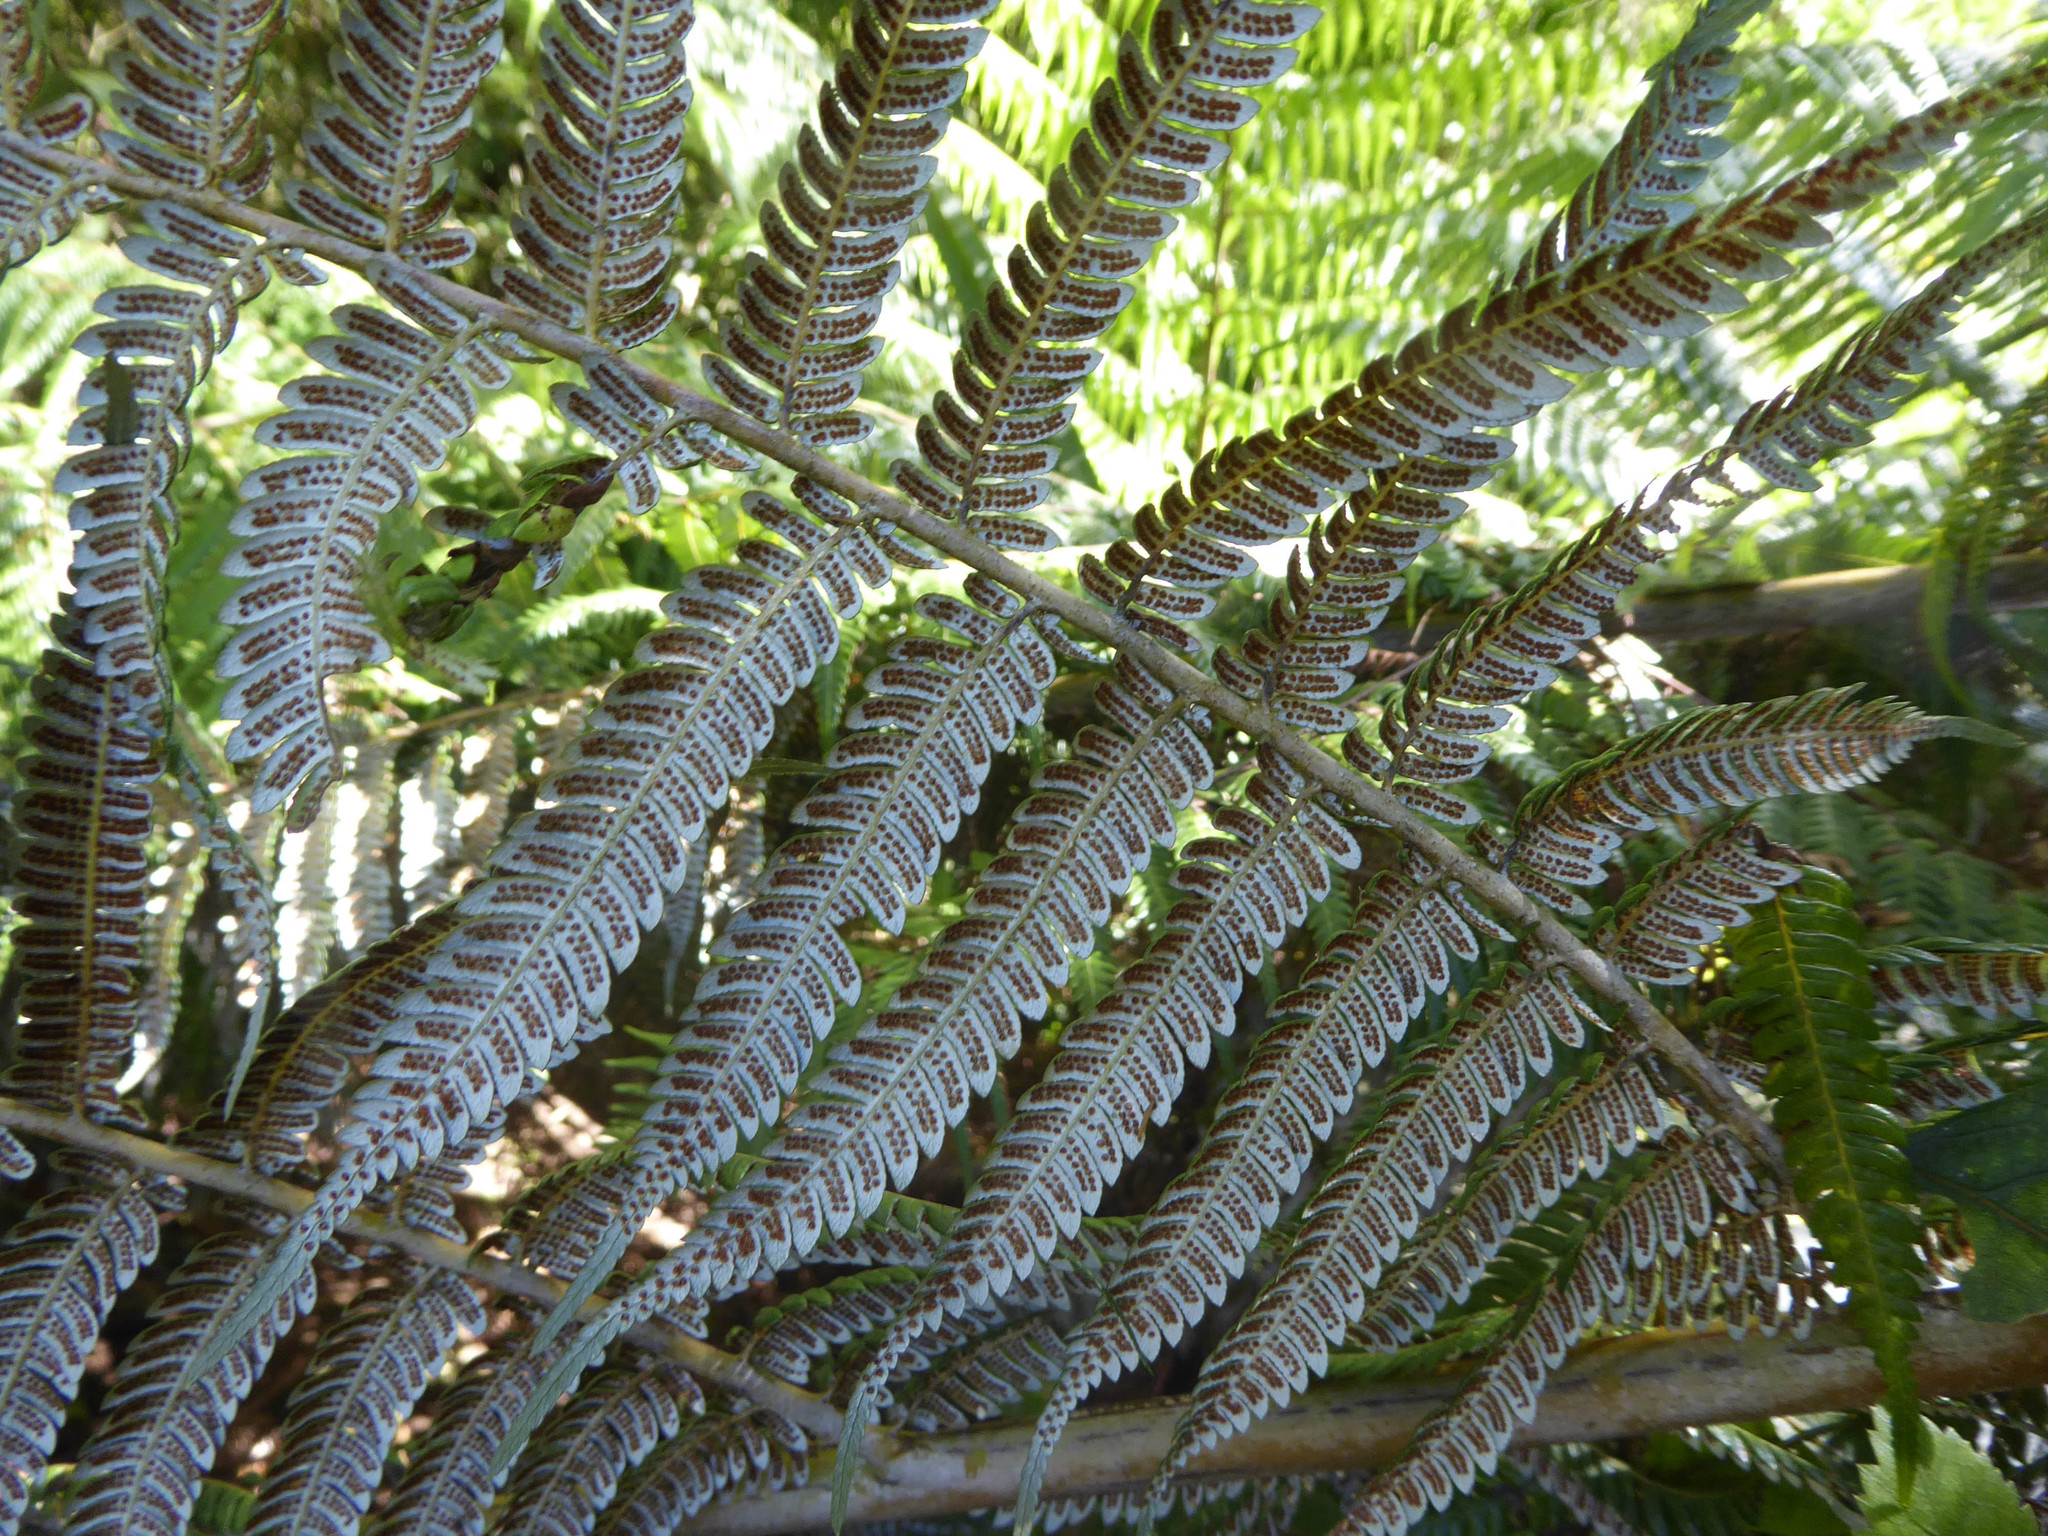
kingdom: Plantae
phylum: Tracheophyta
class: Polypodiopsida
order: Cyatheales
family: Cyatheaceae
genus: Alsophila
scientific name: Alsophila dealbata
